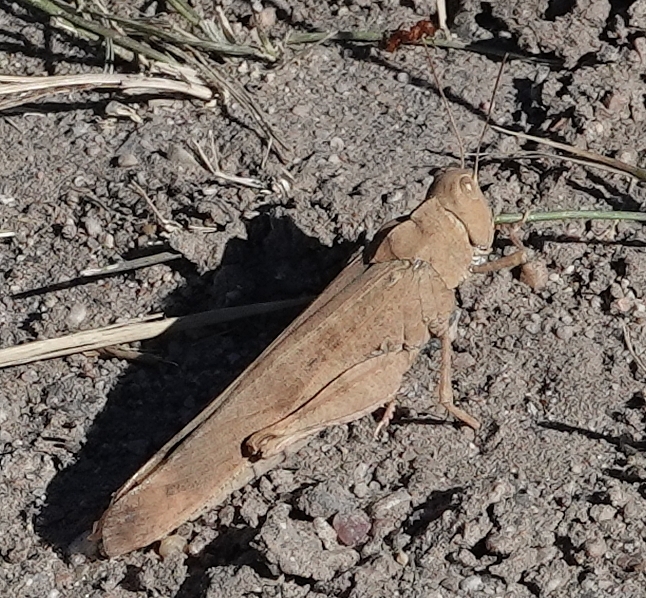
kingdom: Animalia
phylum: Arthropoda
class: Insecta
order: Orthoptera
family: Acrididae
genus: Dissosteira
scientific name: Dissosteira carolina
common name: Carolina grasshopper
